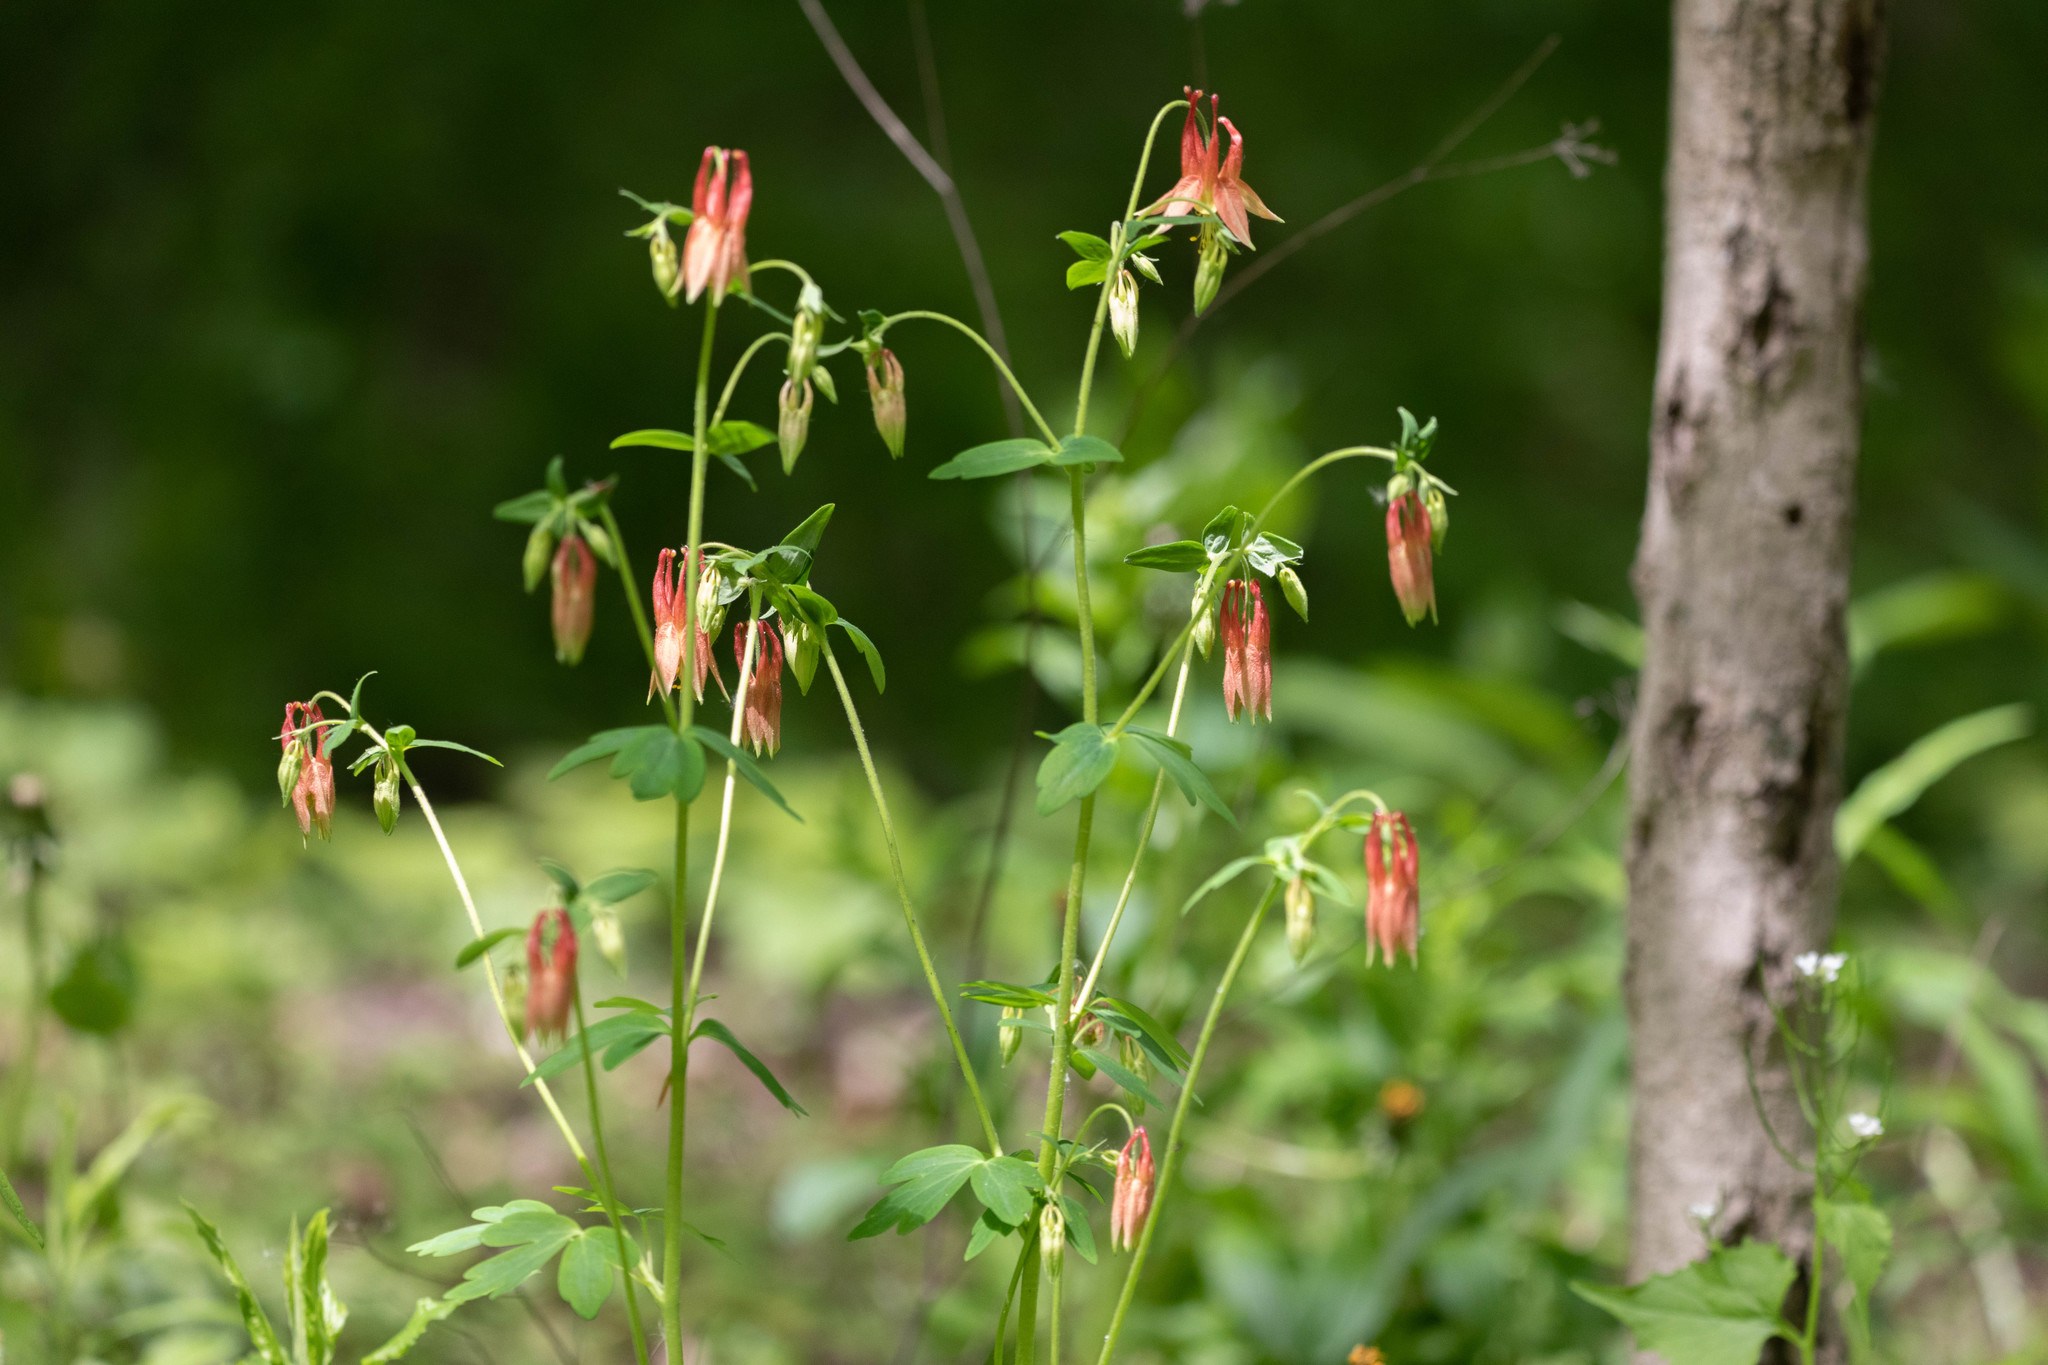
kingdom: Plantae
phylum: Tracheophyta
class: Magnoliopsida
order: Ranunculales
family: Ranunculaceae
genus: Aquilegia
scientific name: Aquilegia canadensis
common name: American columbine
